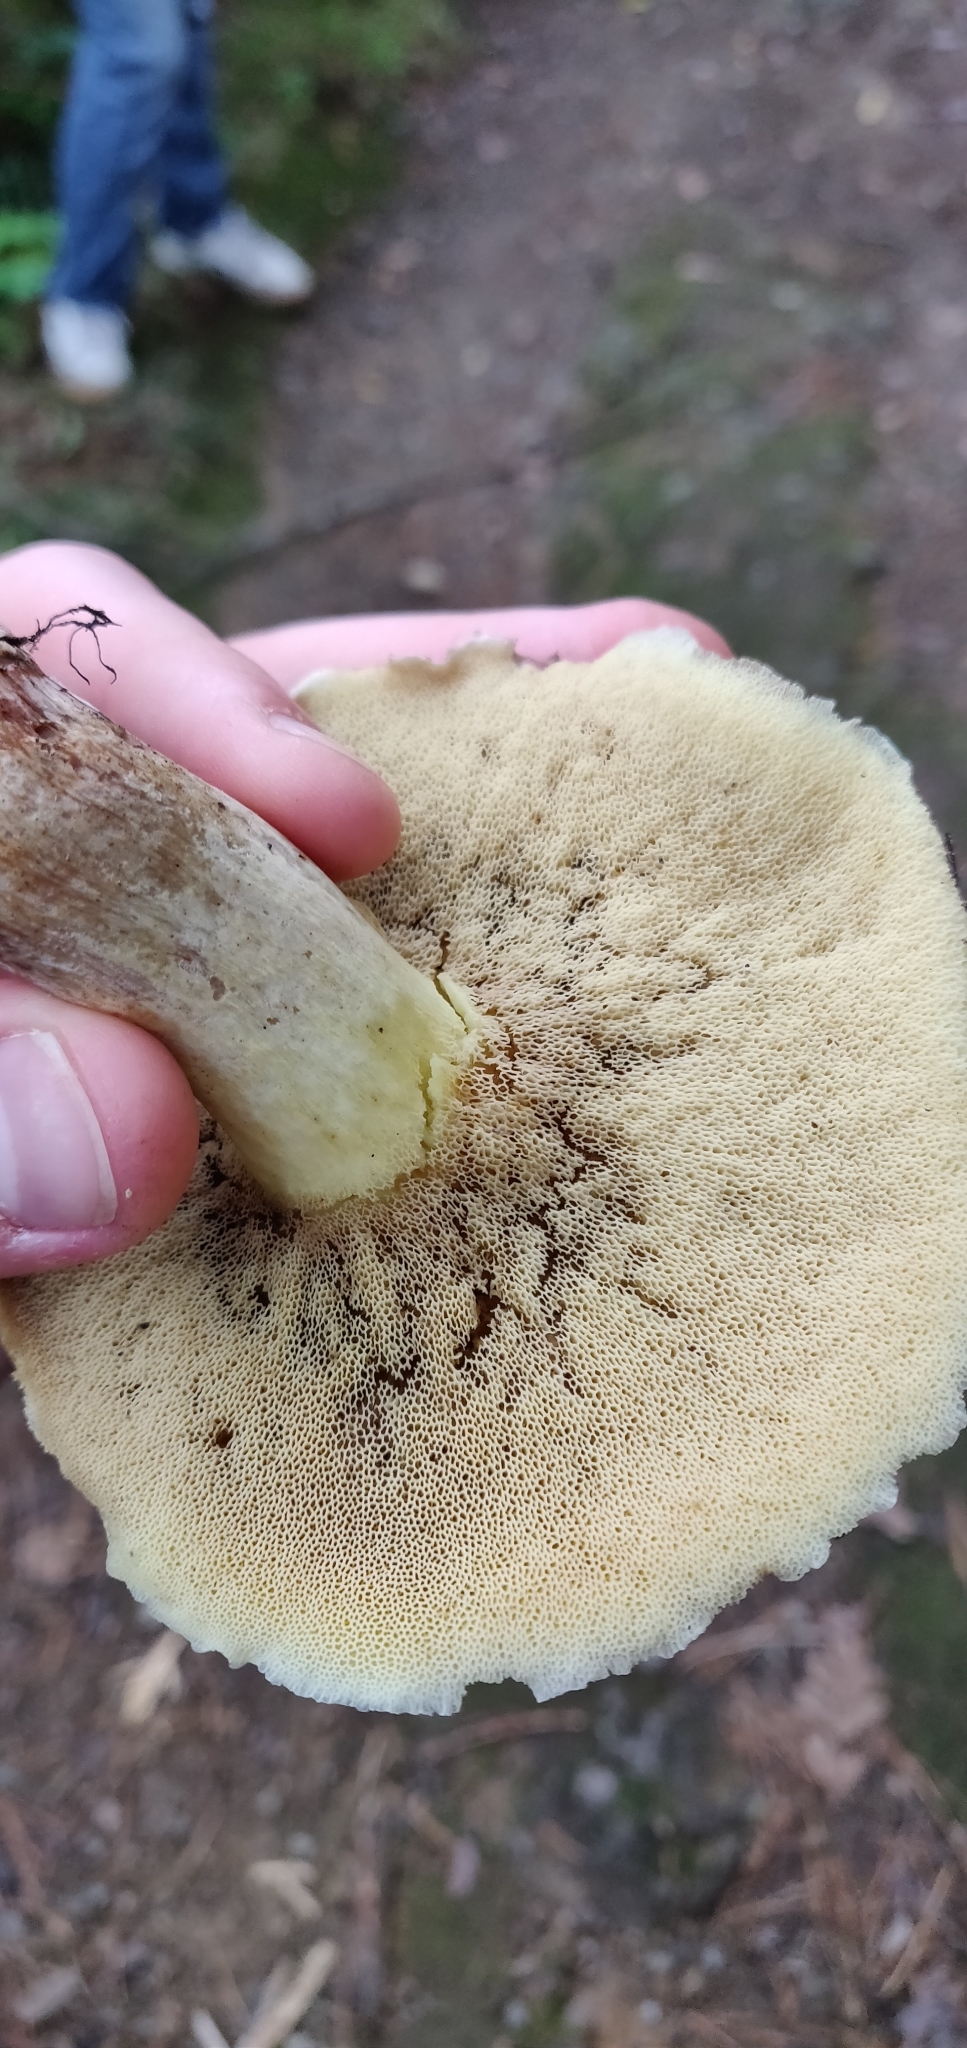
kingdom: Fungi
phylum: Basidiomycota
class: Agaricomycetes
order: Boletales
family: Suillaceae
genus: Suillus
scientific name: Suillus pungens
